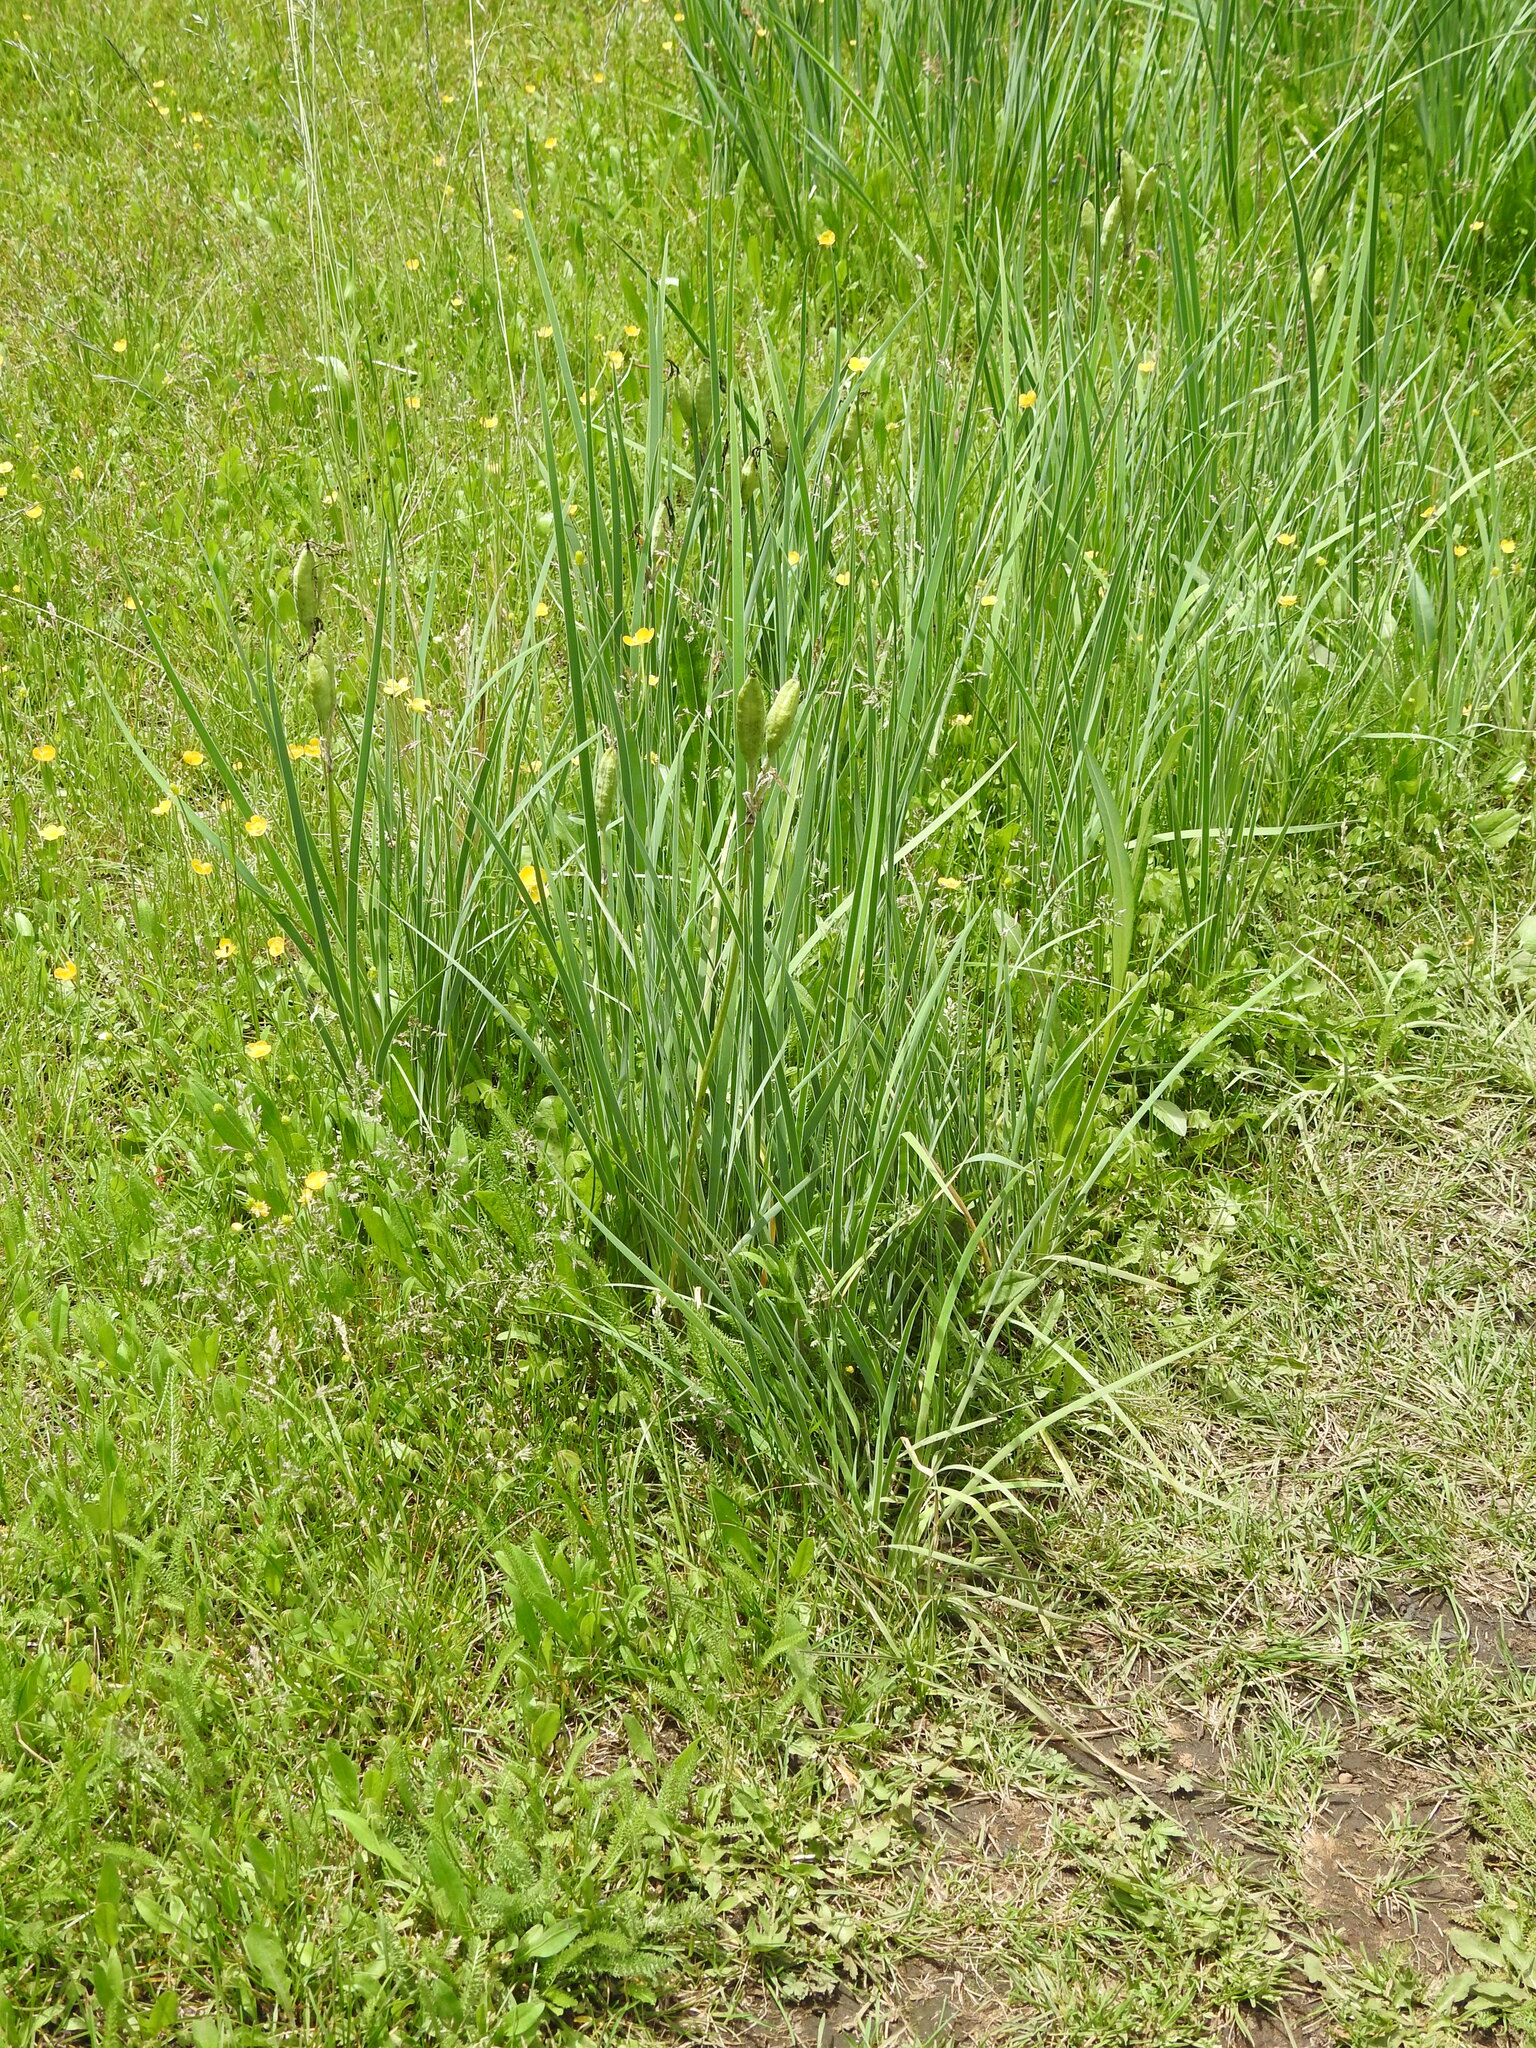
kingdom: Plantae
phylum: Tracheophyta
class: Liliopsida
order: Asparagales
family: Iridaceae
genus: Iris
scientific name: Iris missouriensis
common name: Rocky mountain iris
